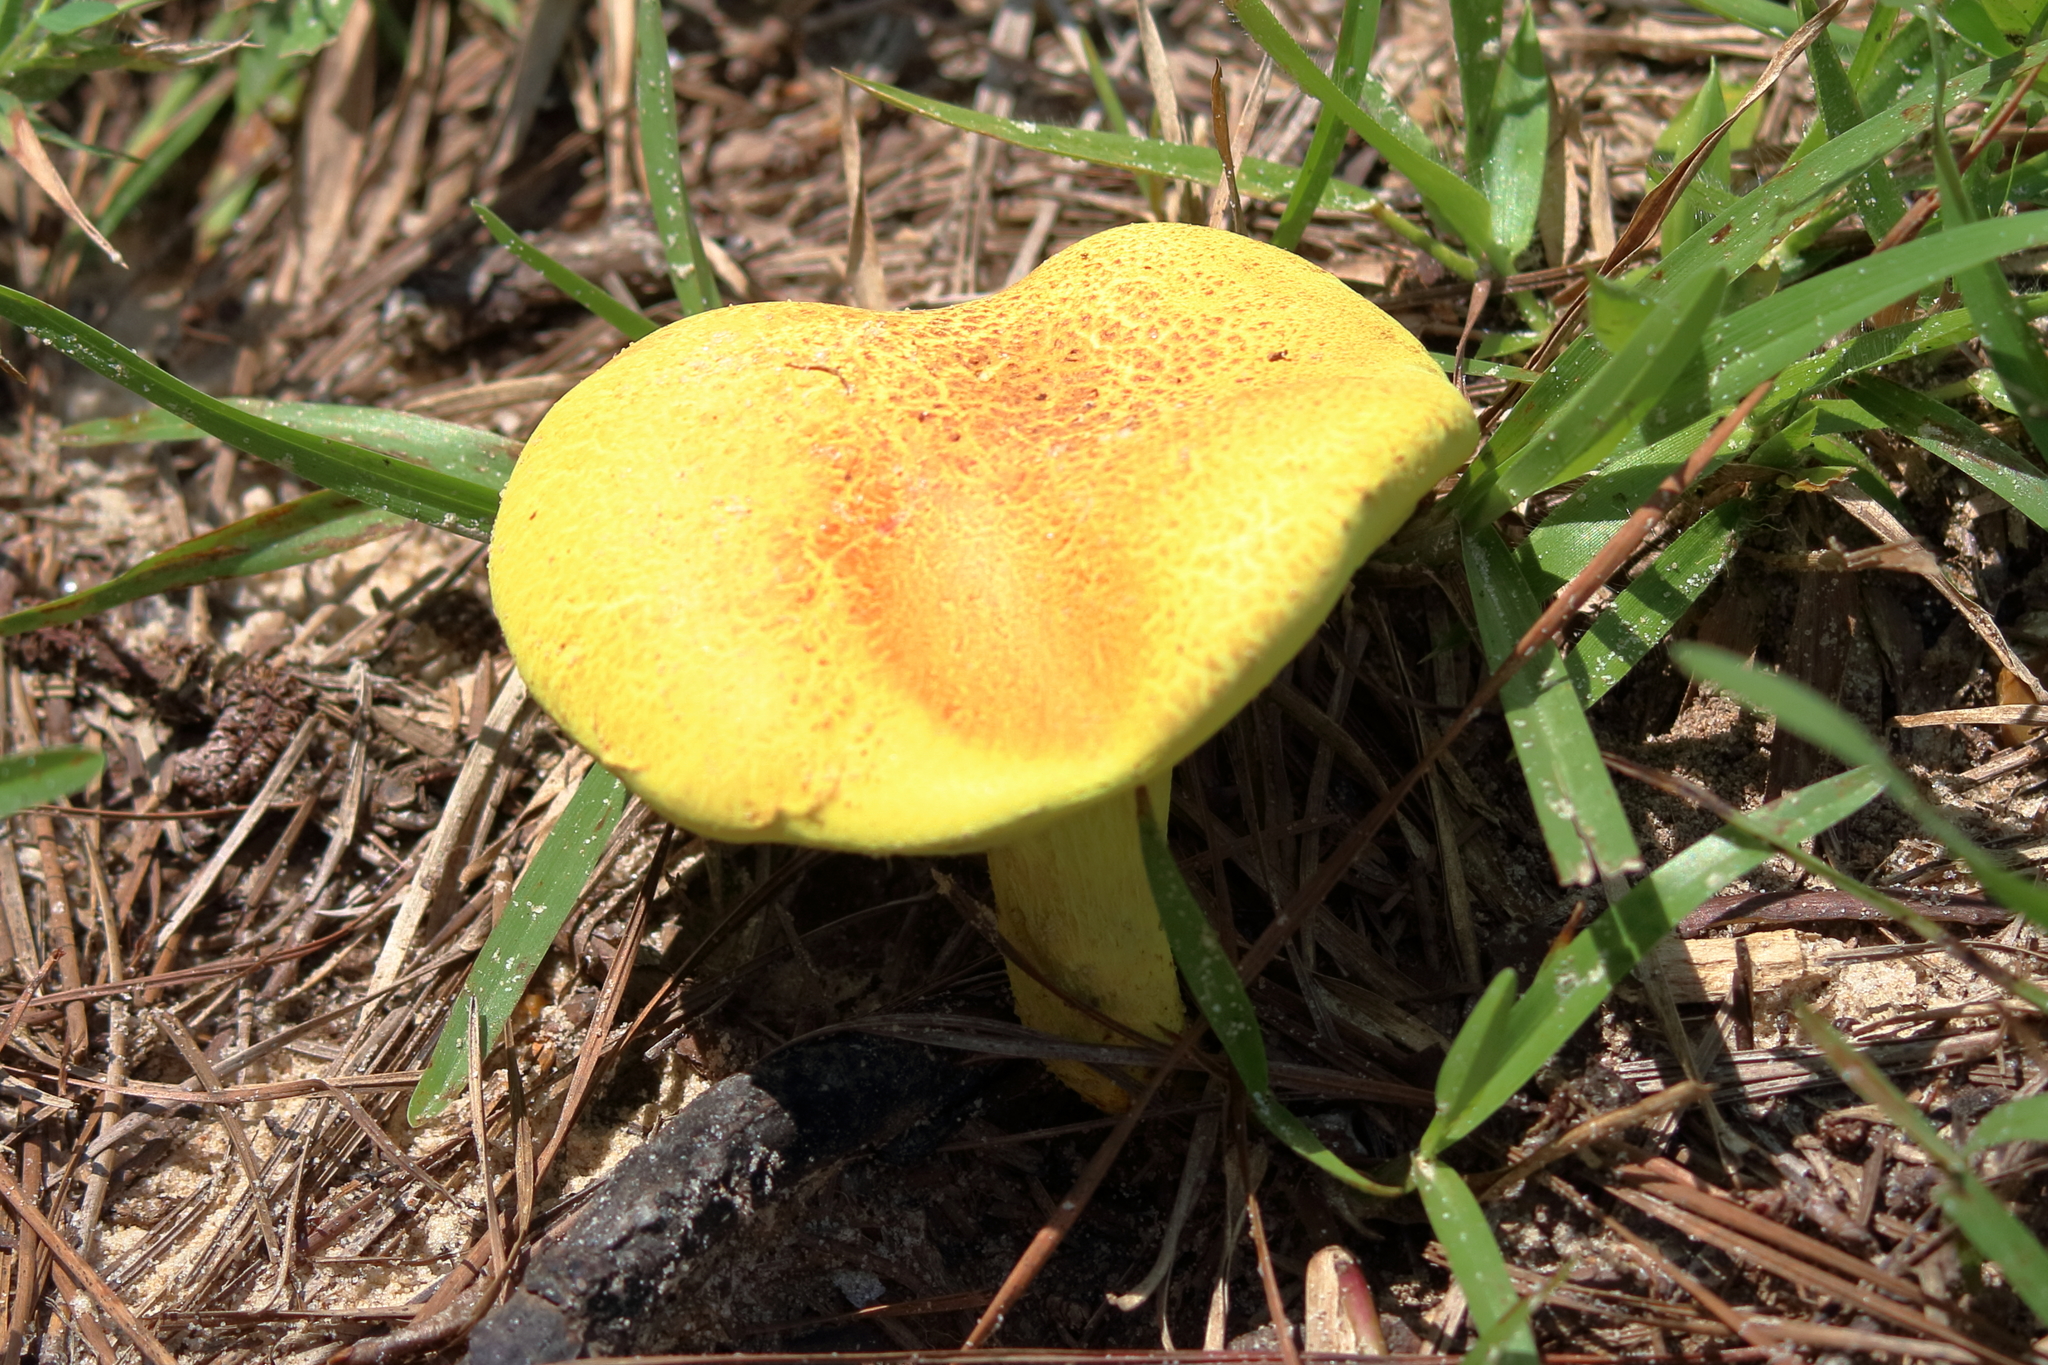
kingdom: Fungi
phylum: Basidiomycota
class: Agaricomycetes
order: Boletales
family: Boletaceae
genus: Pulveroboletus
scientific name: Pulveroboletus ravenelii
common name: Powdery sulfur bolete
